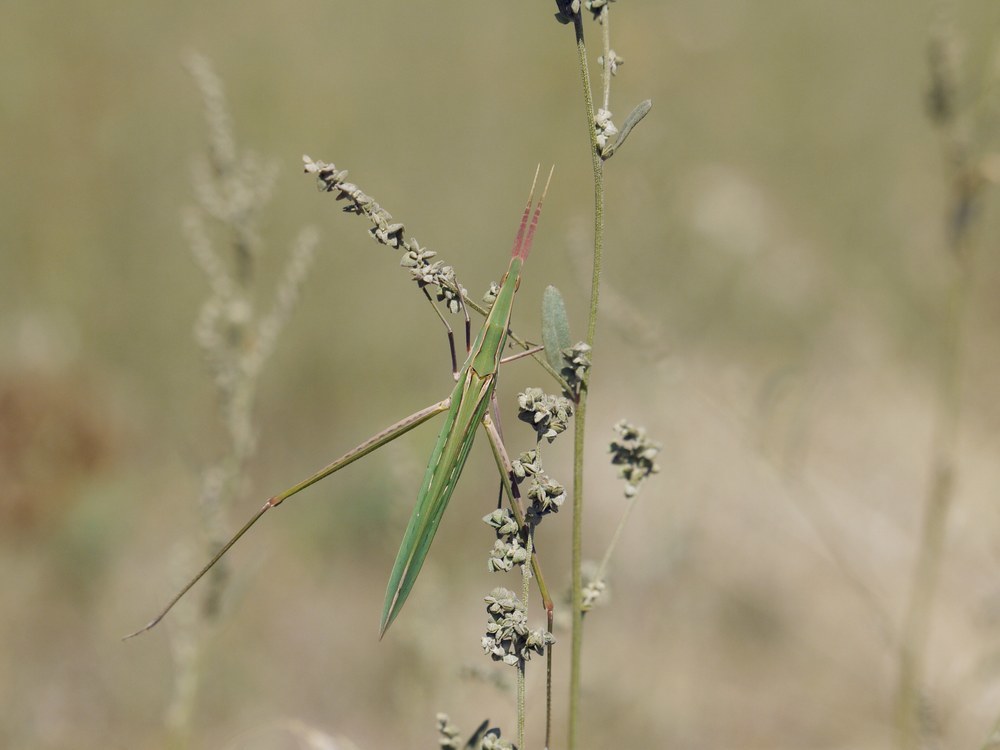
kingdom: Animalia
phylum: Arthropoda
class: Insecta
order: Orthoptera
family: Acrididae
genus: Acrida
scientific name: Acrida ungarica
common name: Common cone-headed grasshopper
